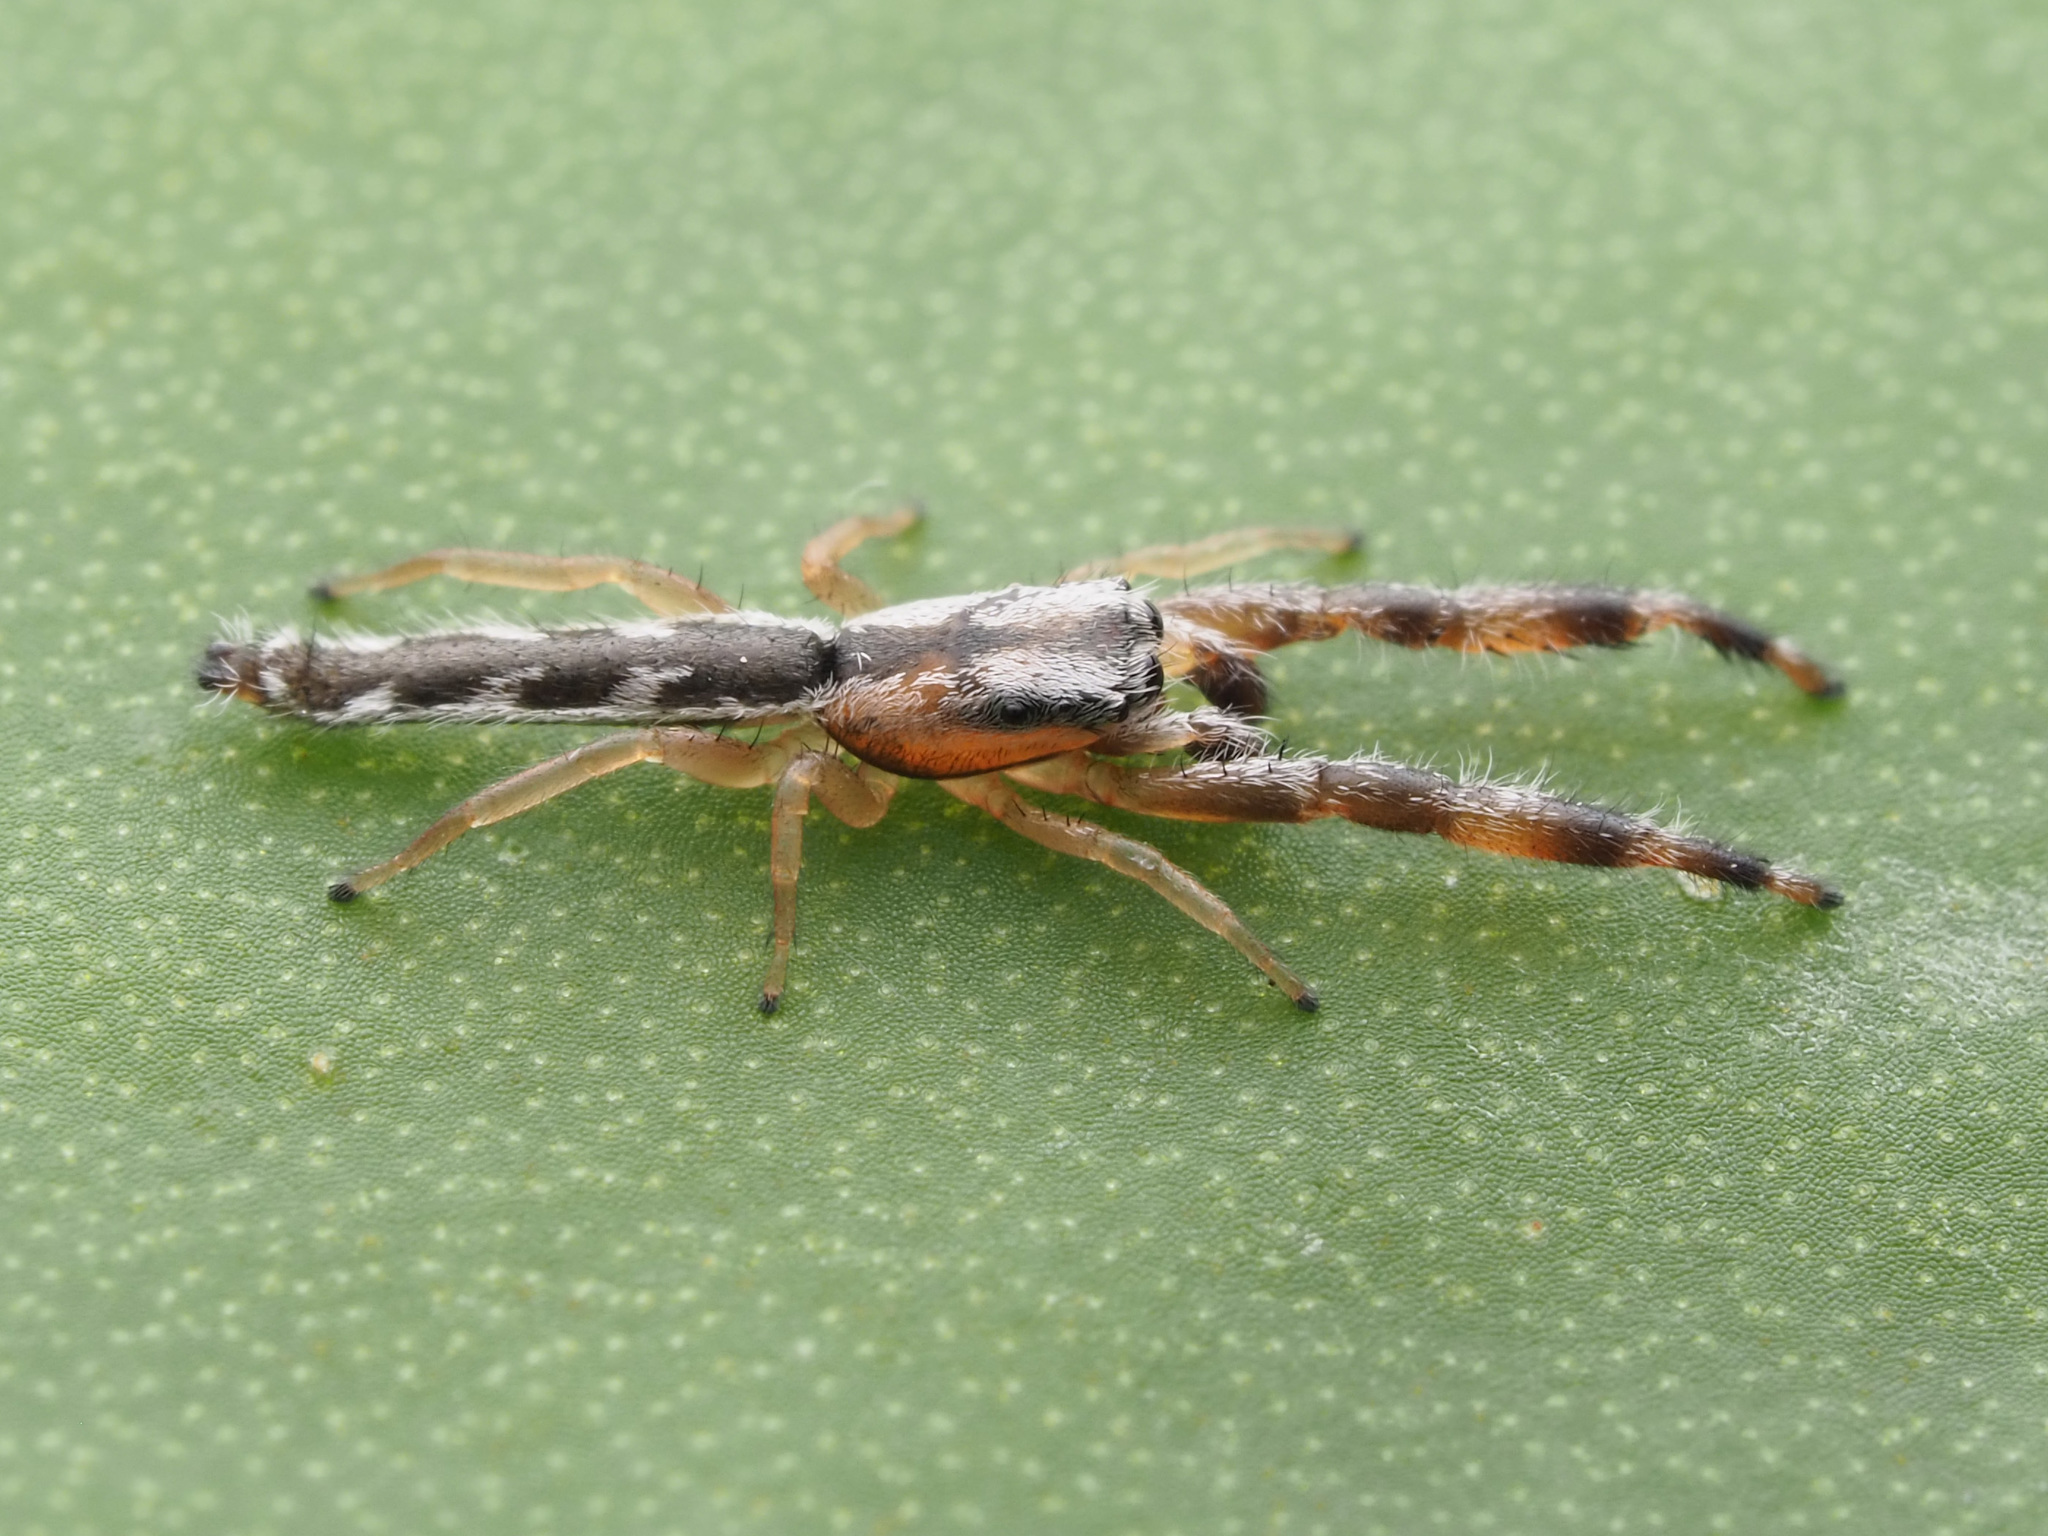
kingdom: Animalia
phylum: Arthropoda
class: Arachnida
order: Araneae
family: Salticidae
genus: Marpissa
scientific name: Marpissa pikei
